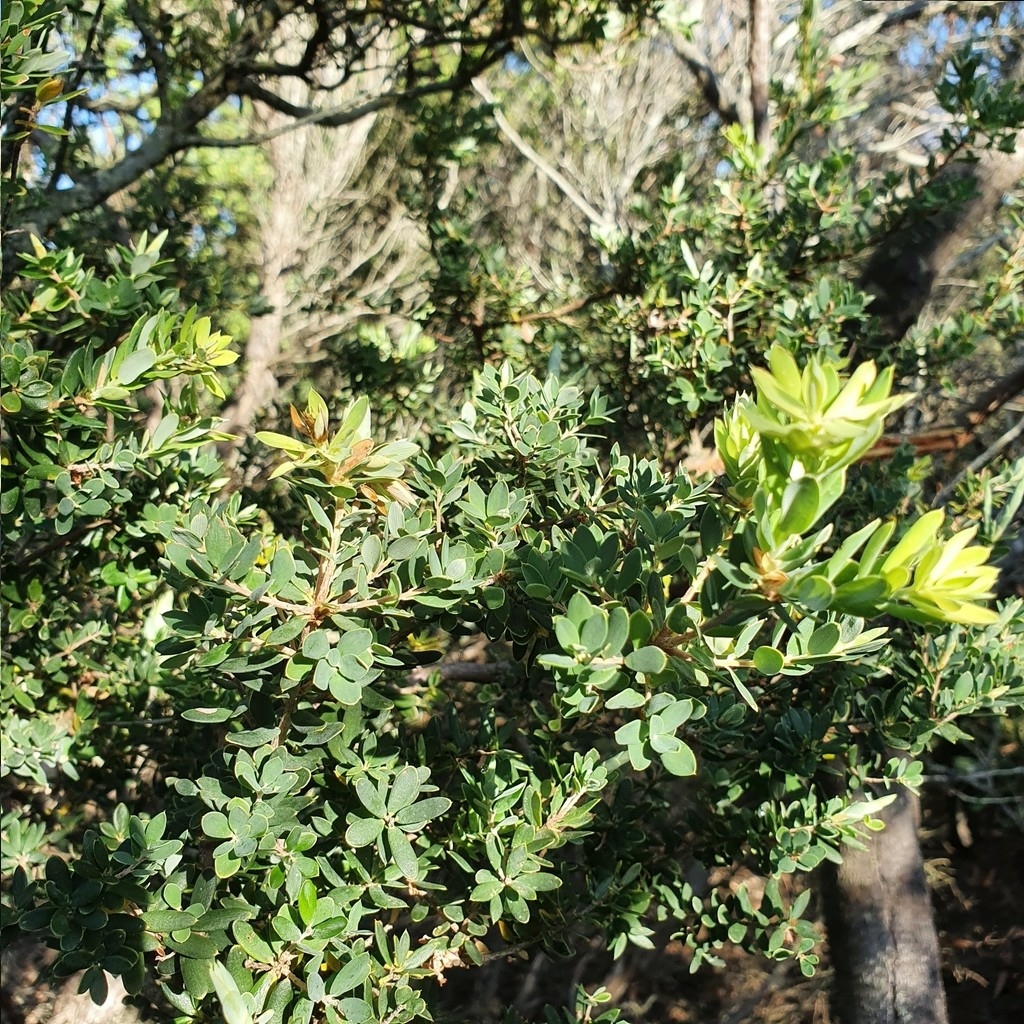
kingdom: Plantae
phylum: Tracheophyta
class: Magnoliopsida
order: Ericales
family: Ericaceae
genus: Monotoca
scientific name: Monotoca elliptica
